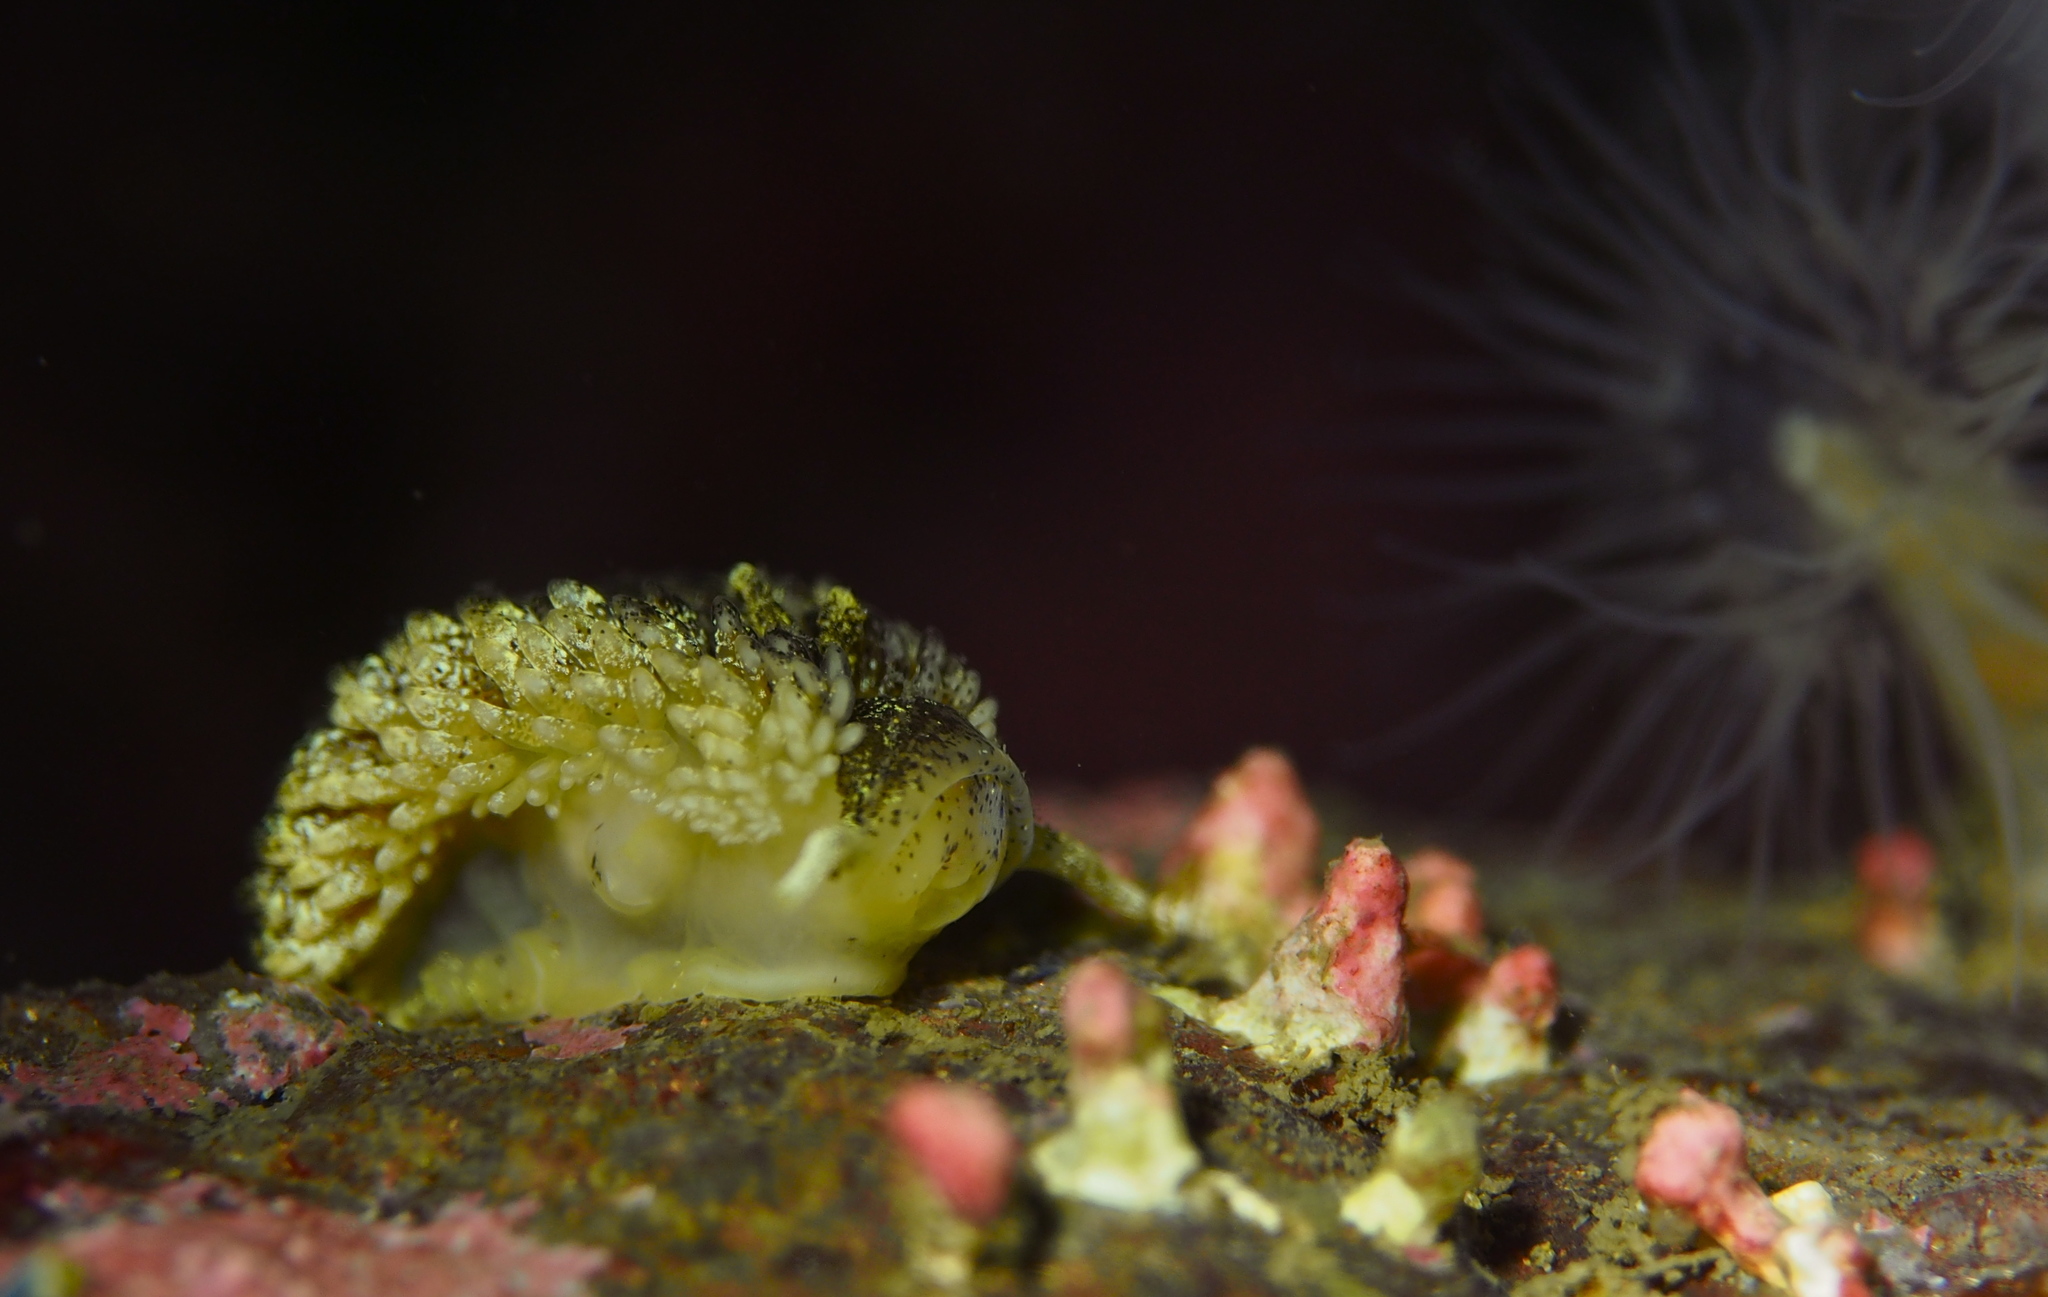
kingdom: Animalia
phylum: Mollusca
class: Gastropoda
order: Nudibranchia
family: Aeolidiidae
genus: Aeolidia
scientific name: Aeolidia papillosa
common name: Common grey sea slug
